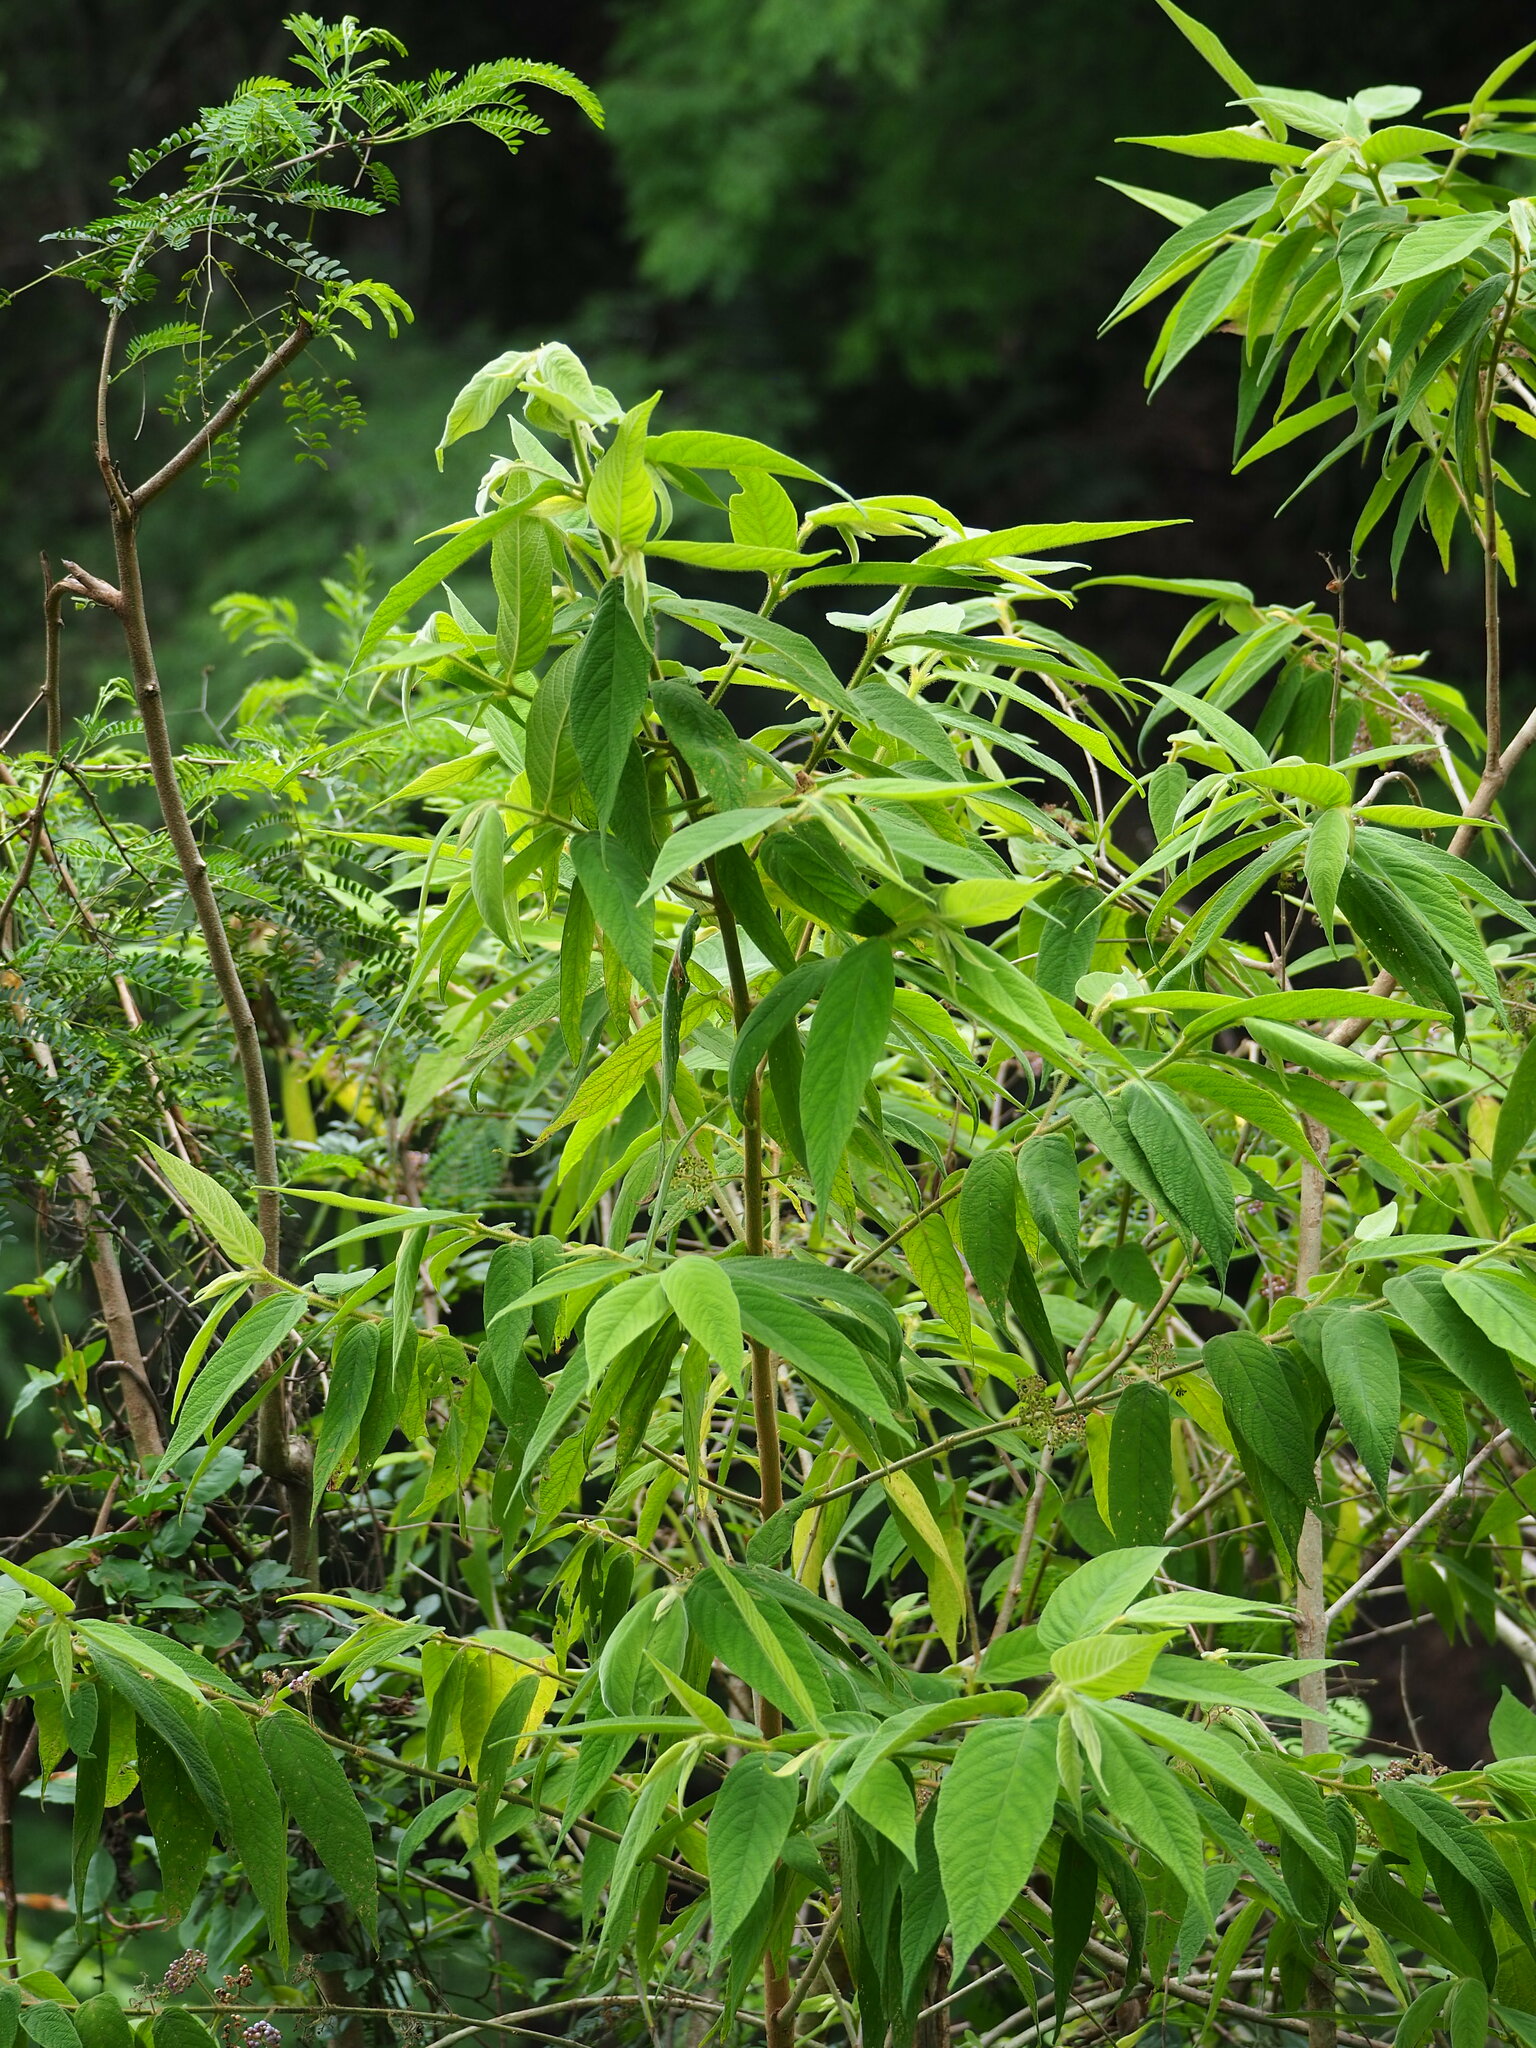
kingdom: Plantae
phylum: Tracheophyta
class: Magnoliopsida
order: Lamiales
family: Lamiaceae
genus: Callicarpa
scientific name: Callicarpa pilosissima
